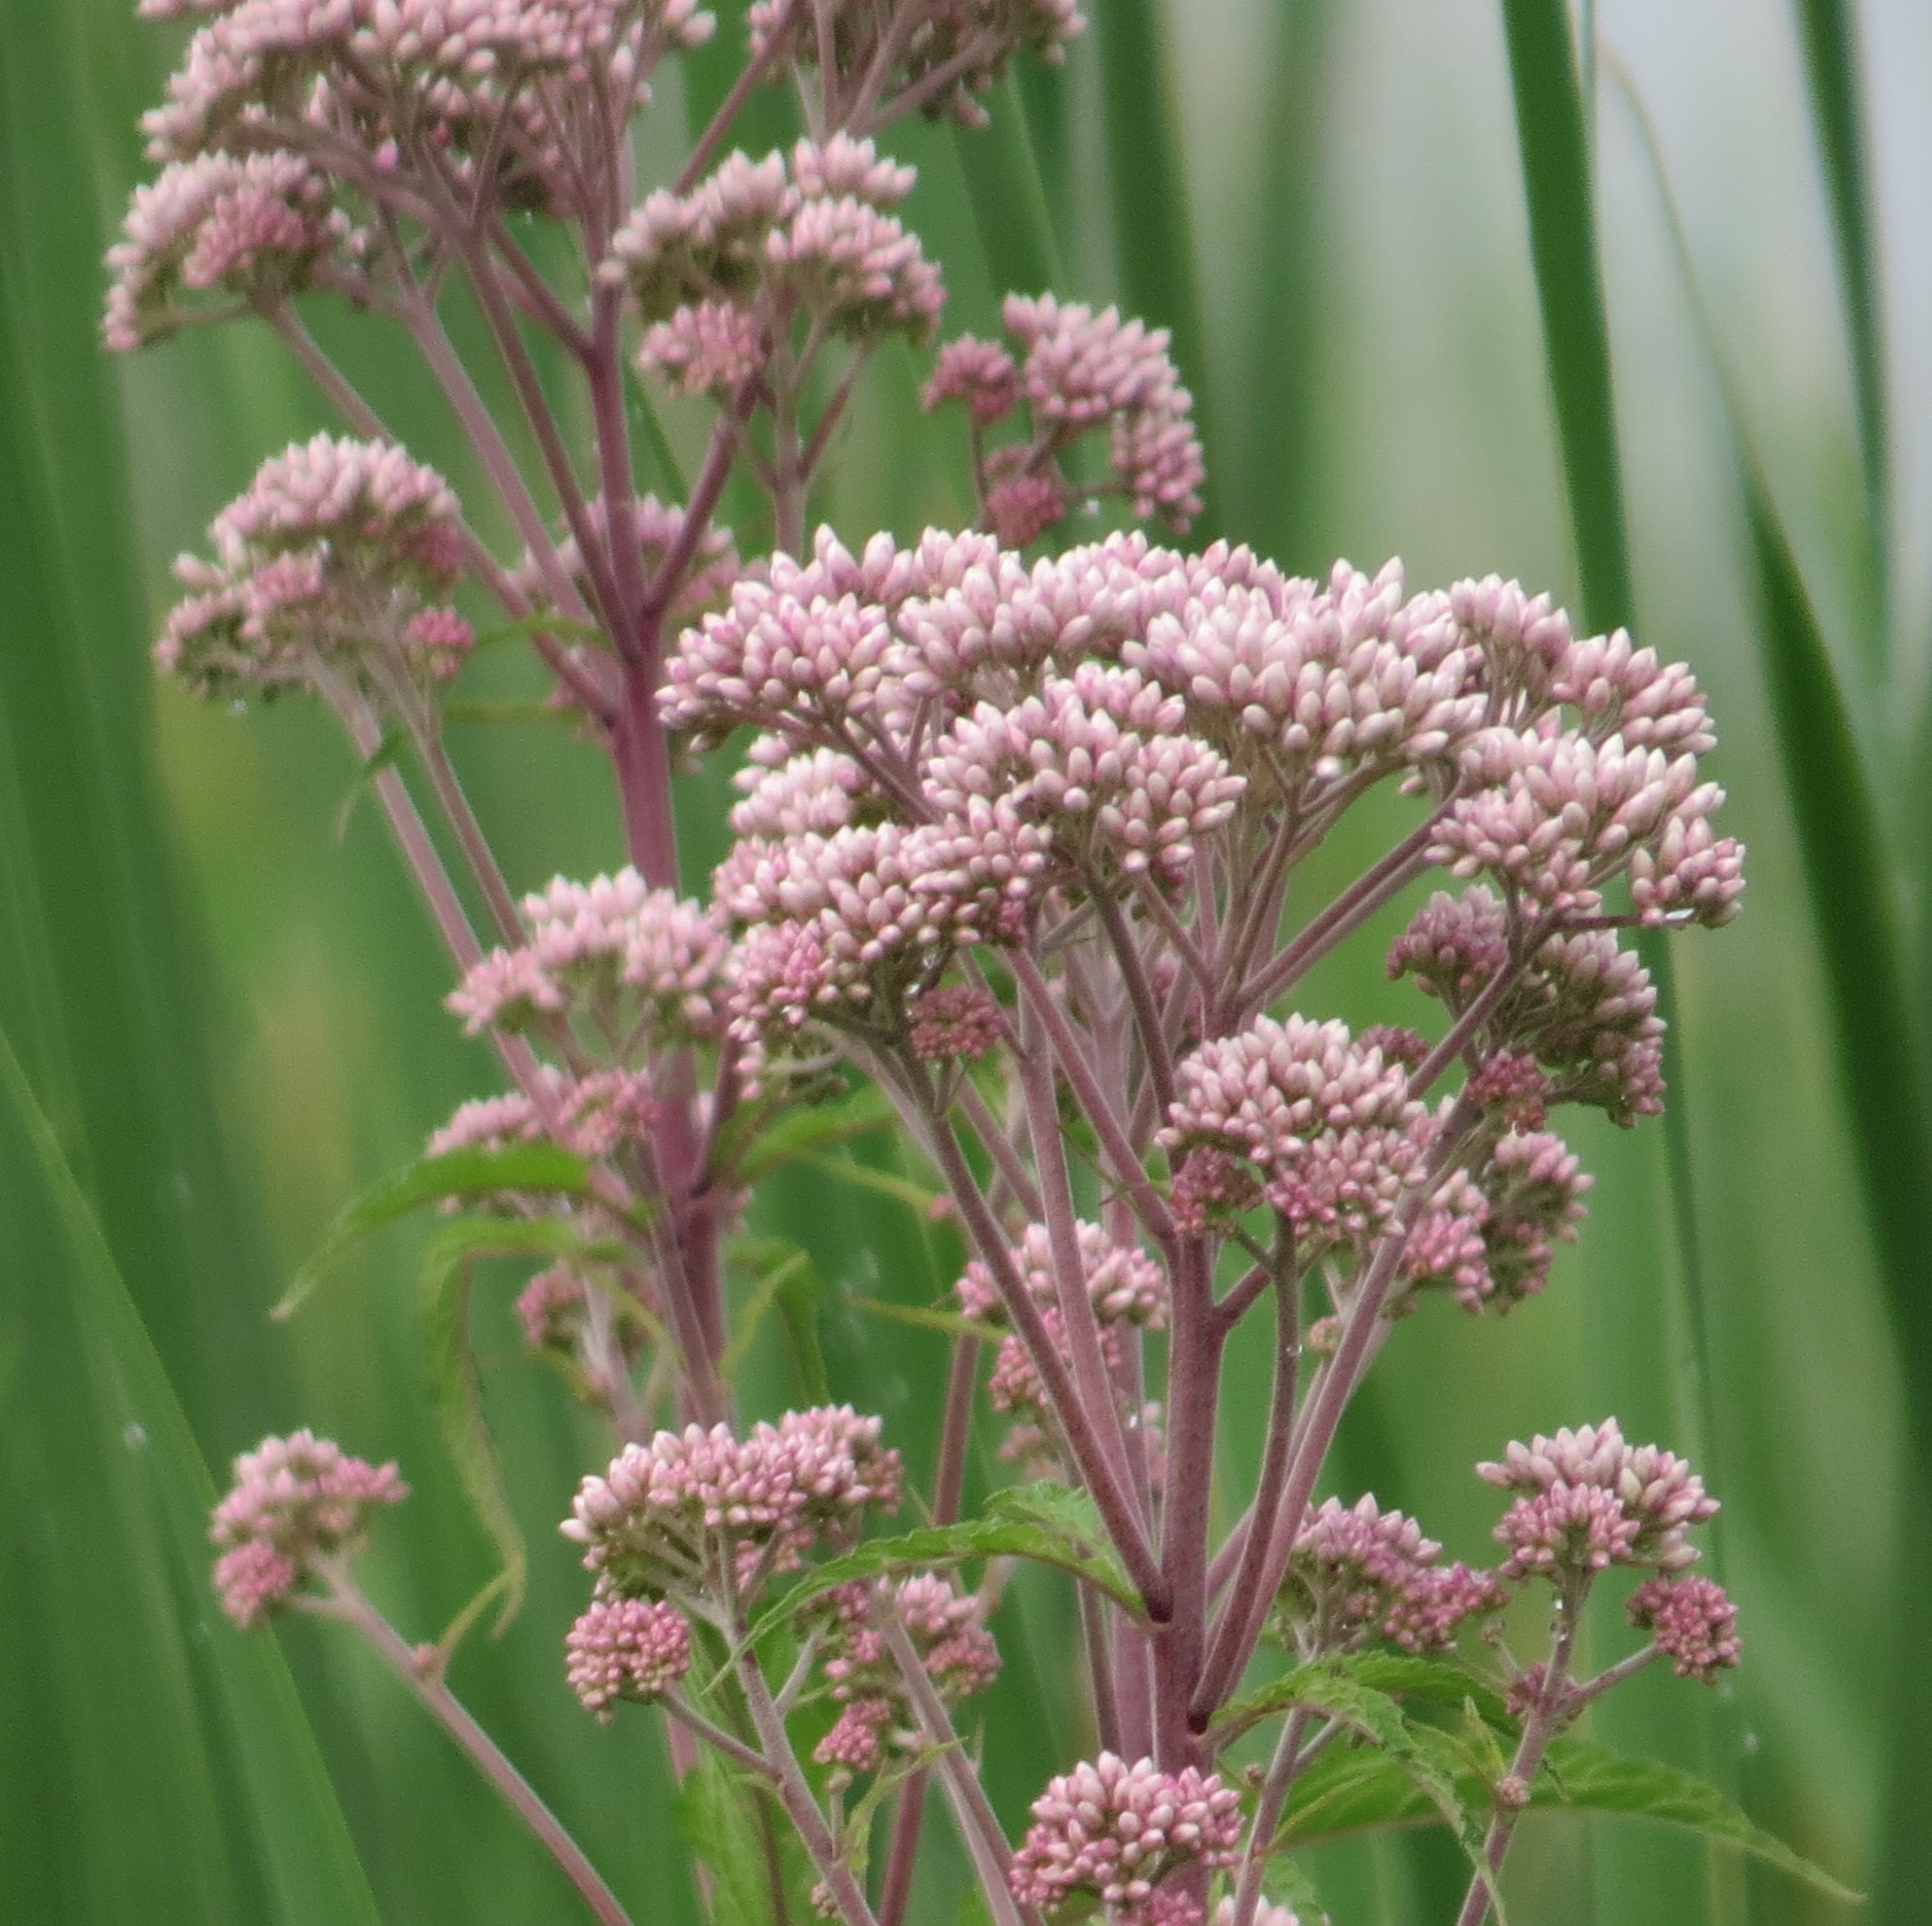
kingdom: Plantae
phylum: Tracheophyta
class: Magnoliopsida
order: Asterales
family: Asteraceae
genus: Eutrochium
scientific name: Eutrochium maculatum
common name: Spotted joe pye weed
